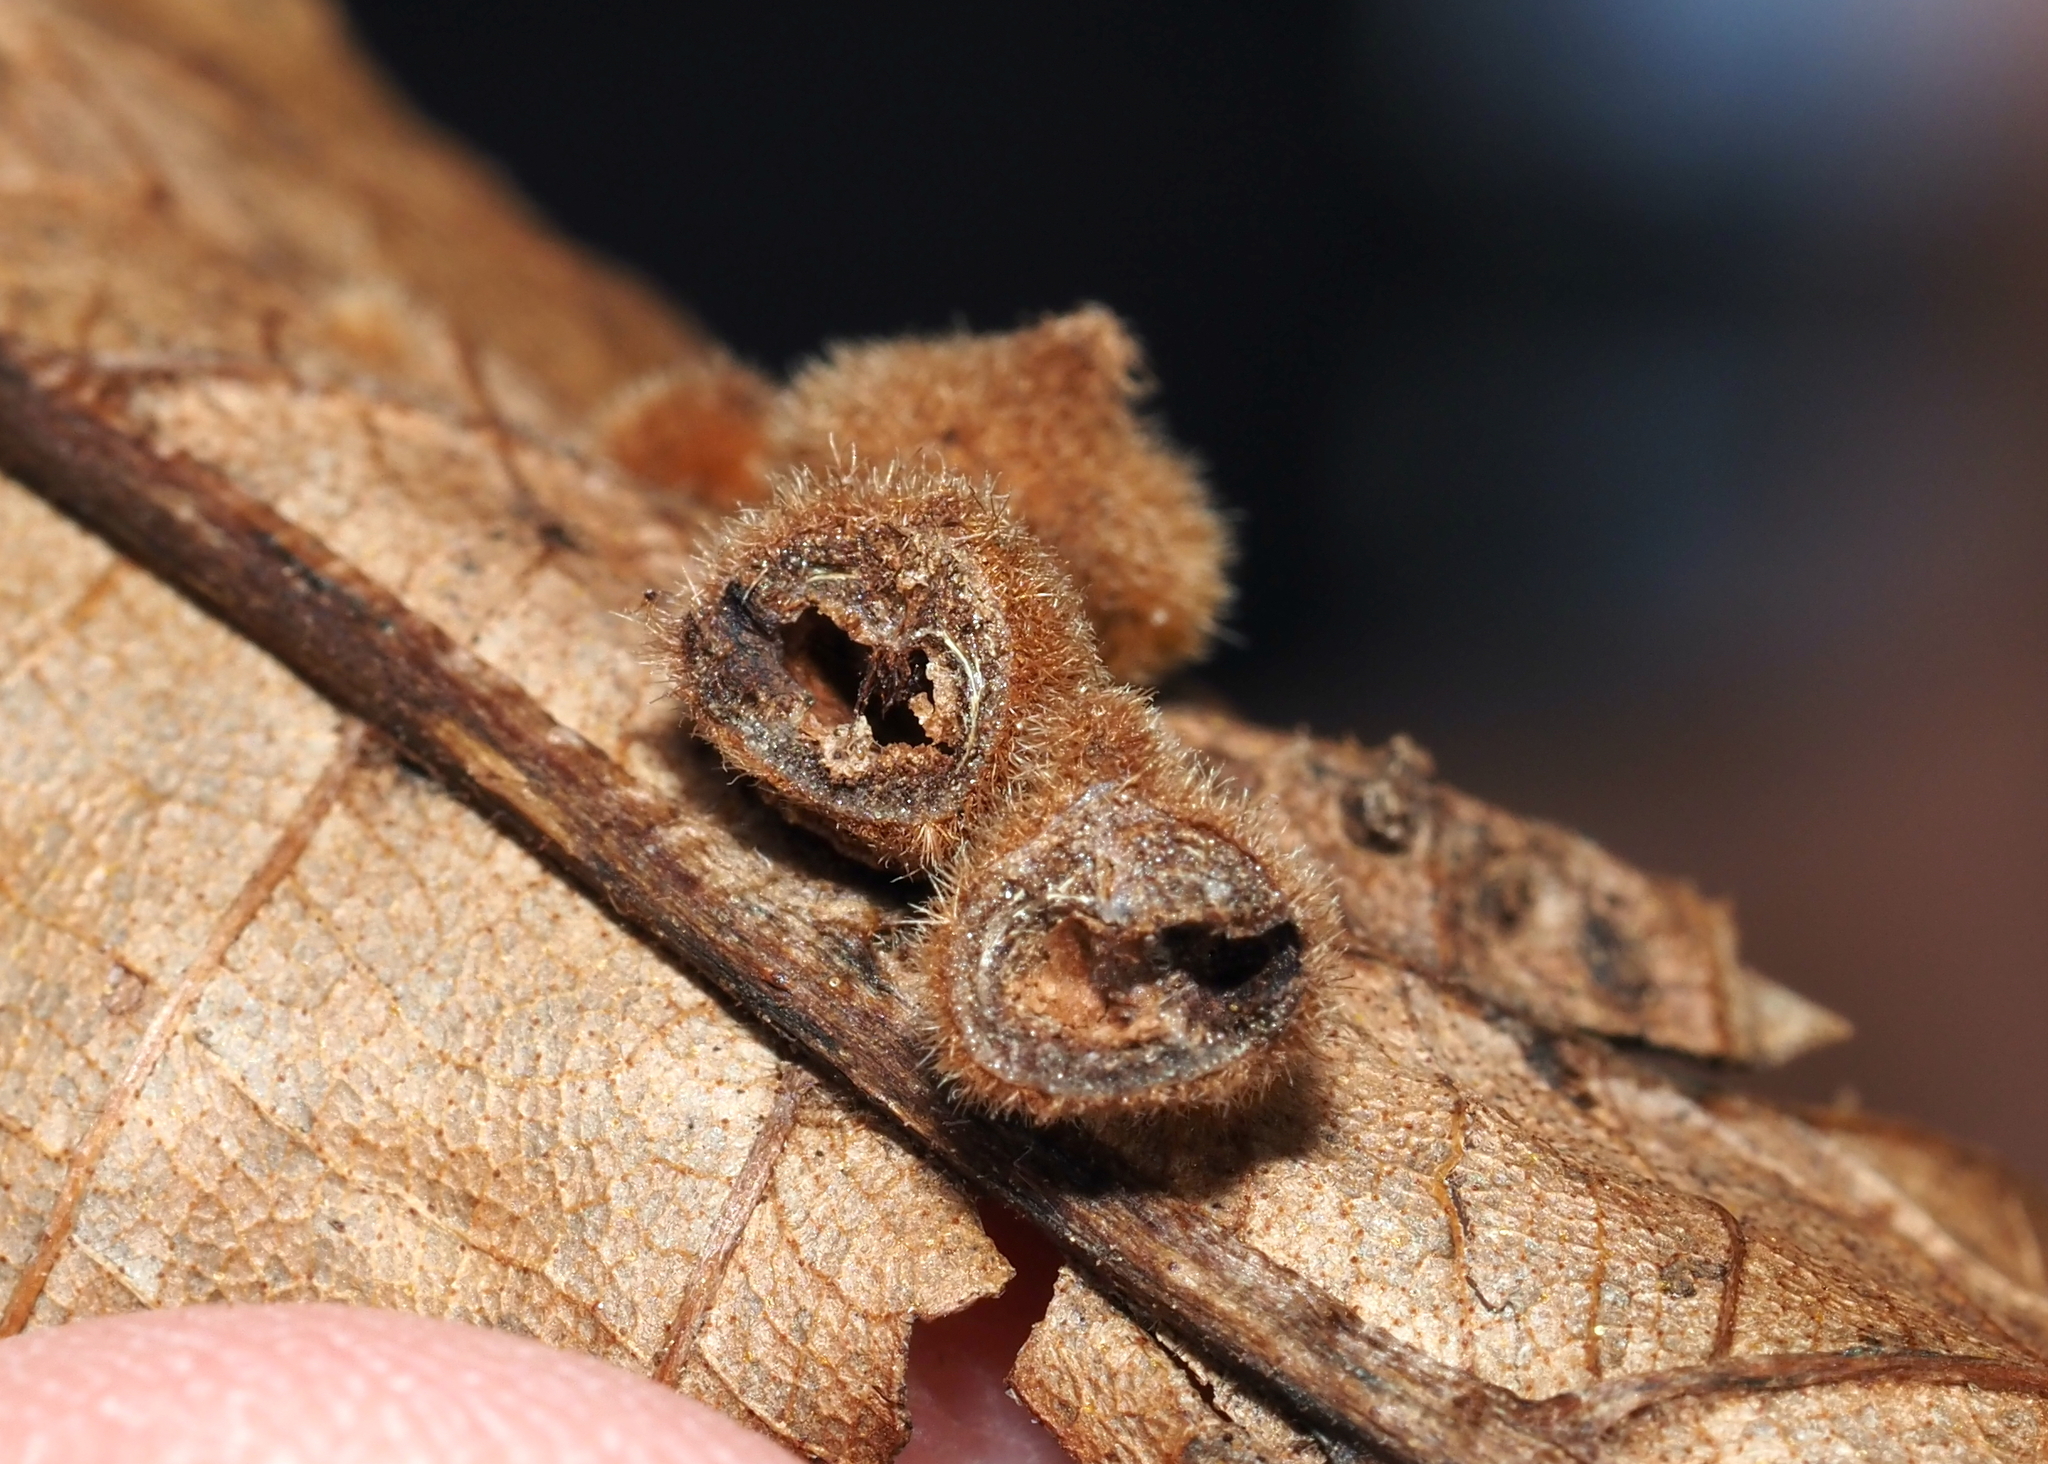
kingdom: Animalia
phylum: Arthropoda
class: Insecta
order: Diptera
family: Cecidomyiidae
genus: Caryomyia
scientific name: Caryomyia holotricha
